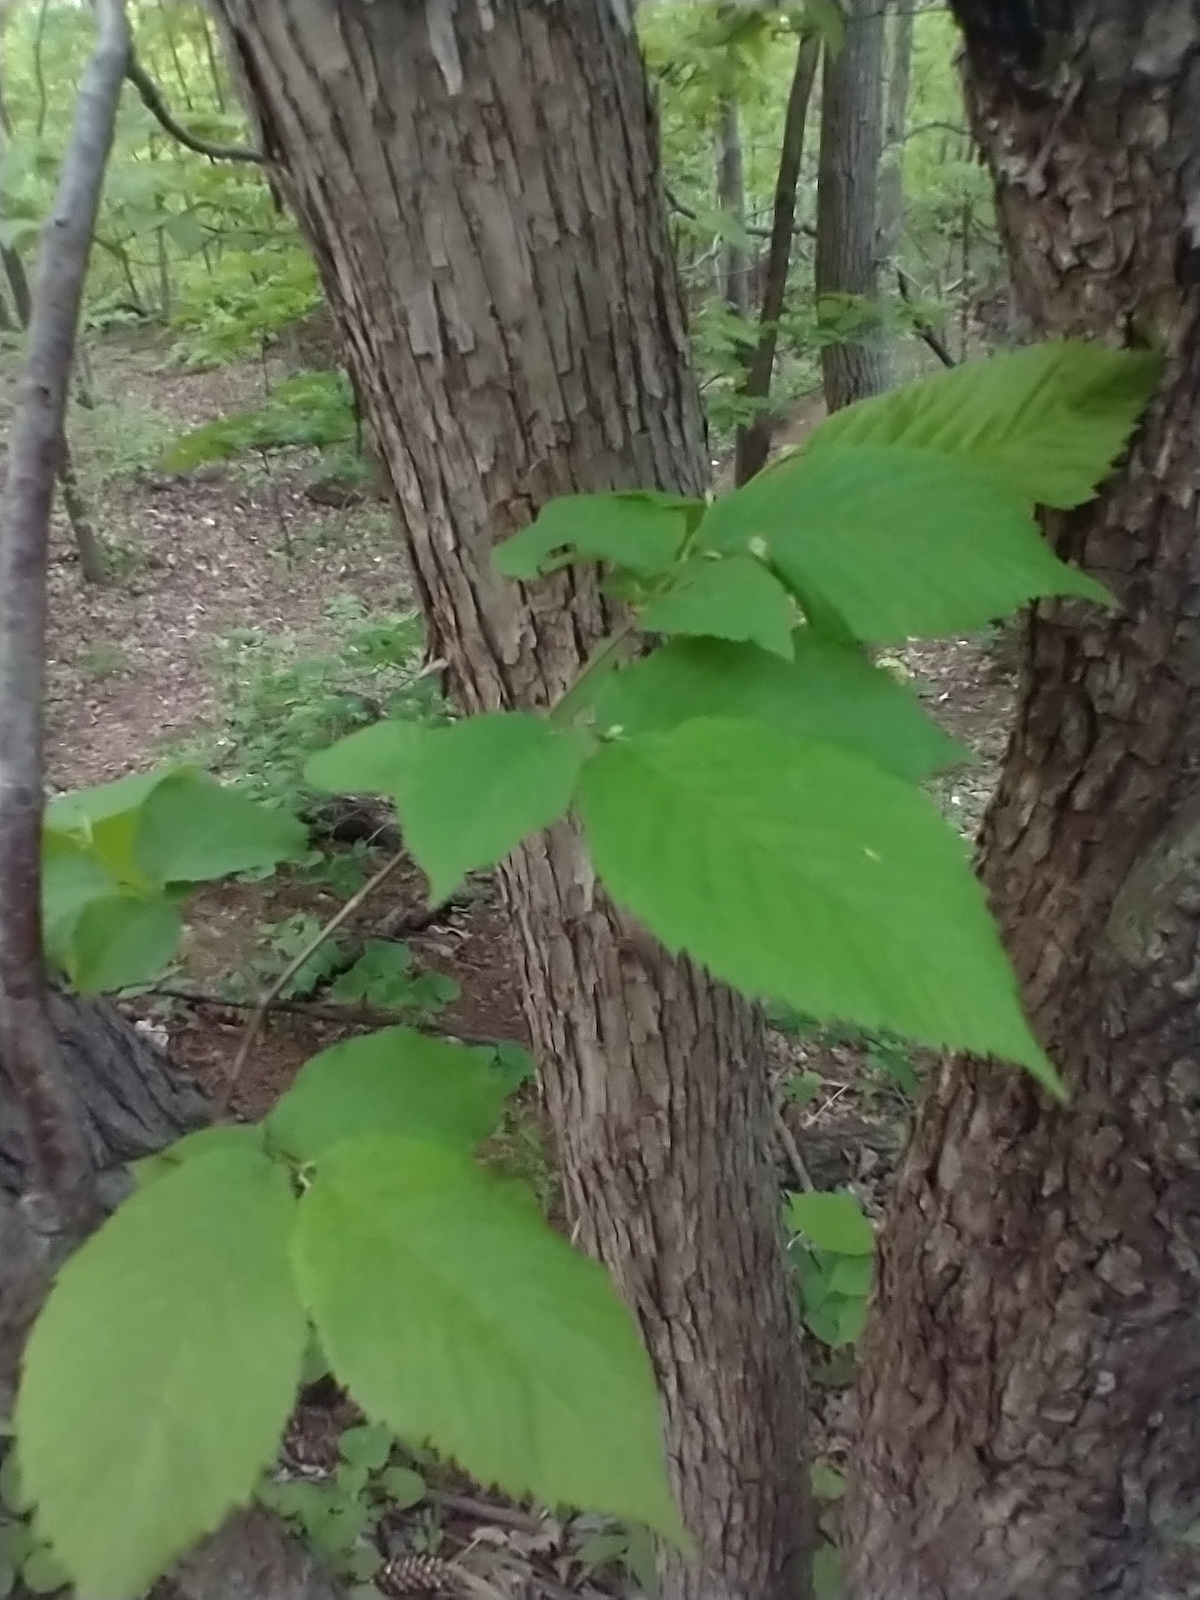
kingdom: Plantae
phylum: Tracheophyta
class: Magnoliopsida
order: Fagales
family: Betulaceae
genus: Ostrya
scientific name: Ostrya virginiana
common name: Ironwood
